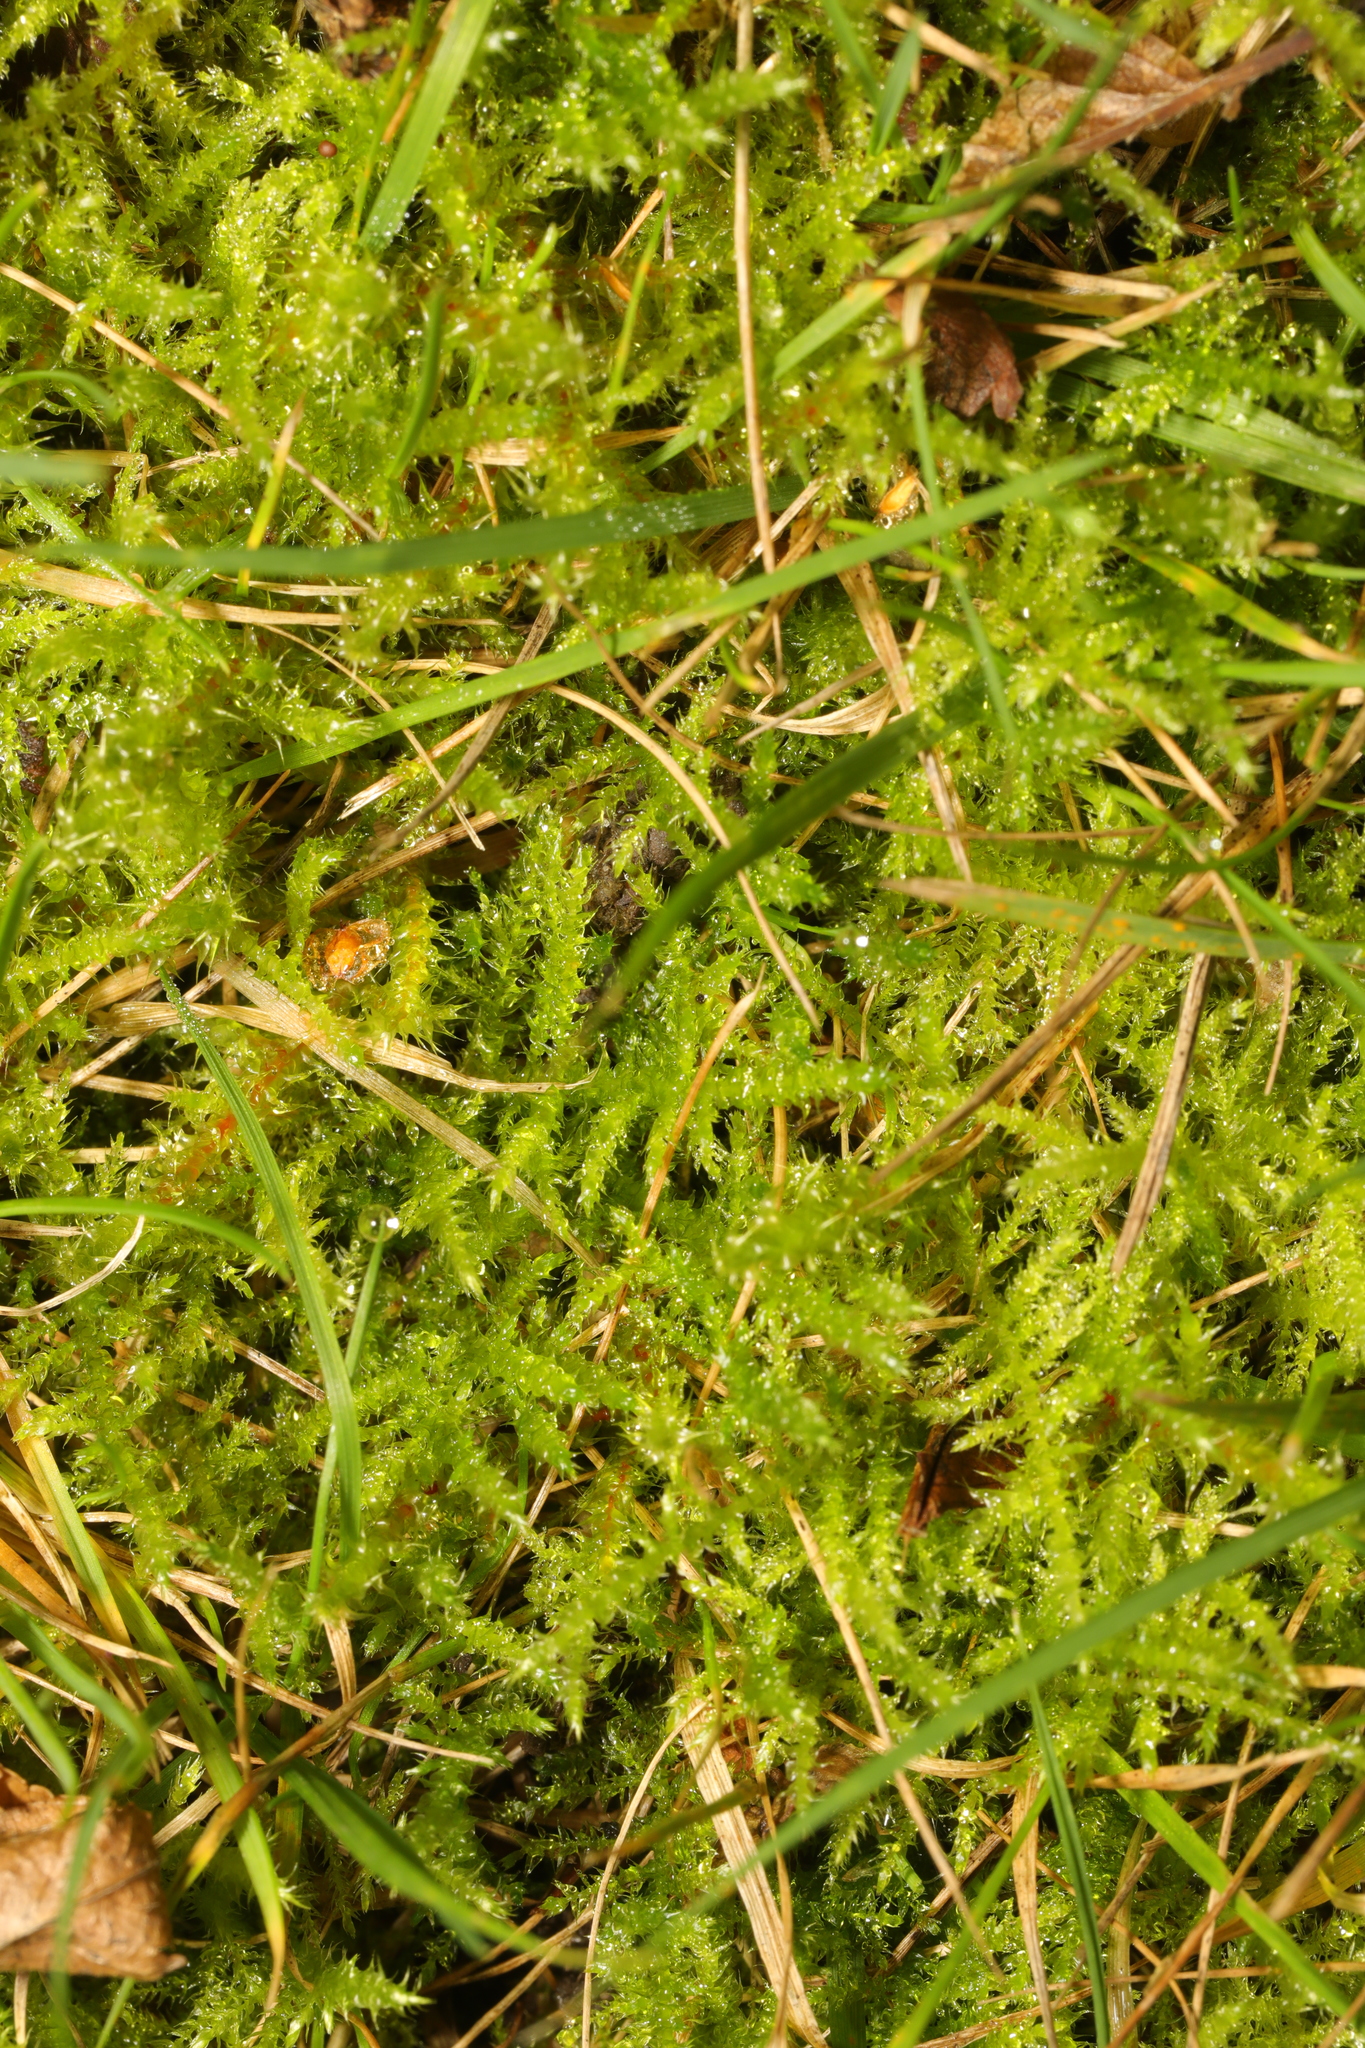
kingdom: Plantae
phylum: Bryophyta
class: Bryopsida
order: Hypnales
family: Brachytheciaceae
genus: Kindbergia
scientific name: Kindbergia praelonga
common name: Slender beaked moss
